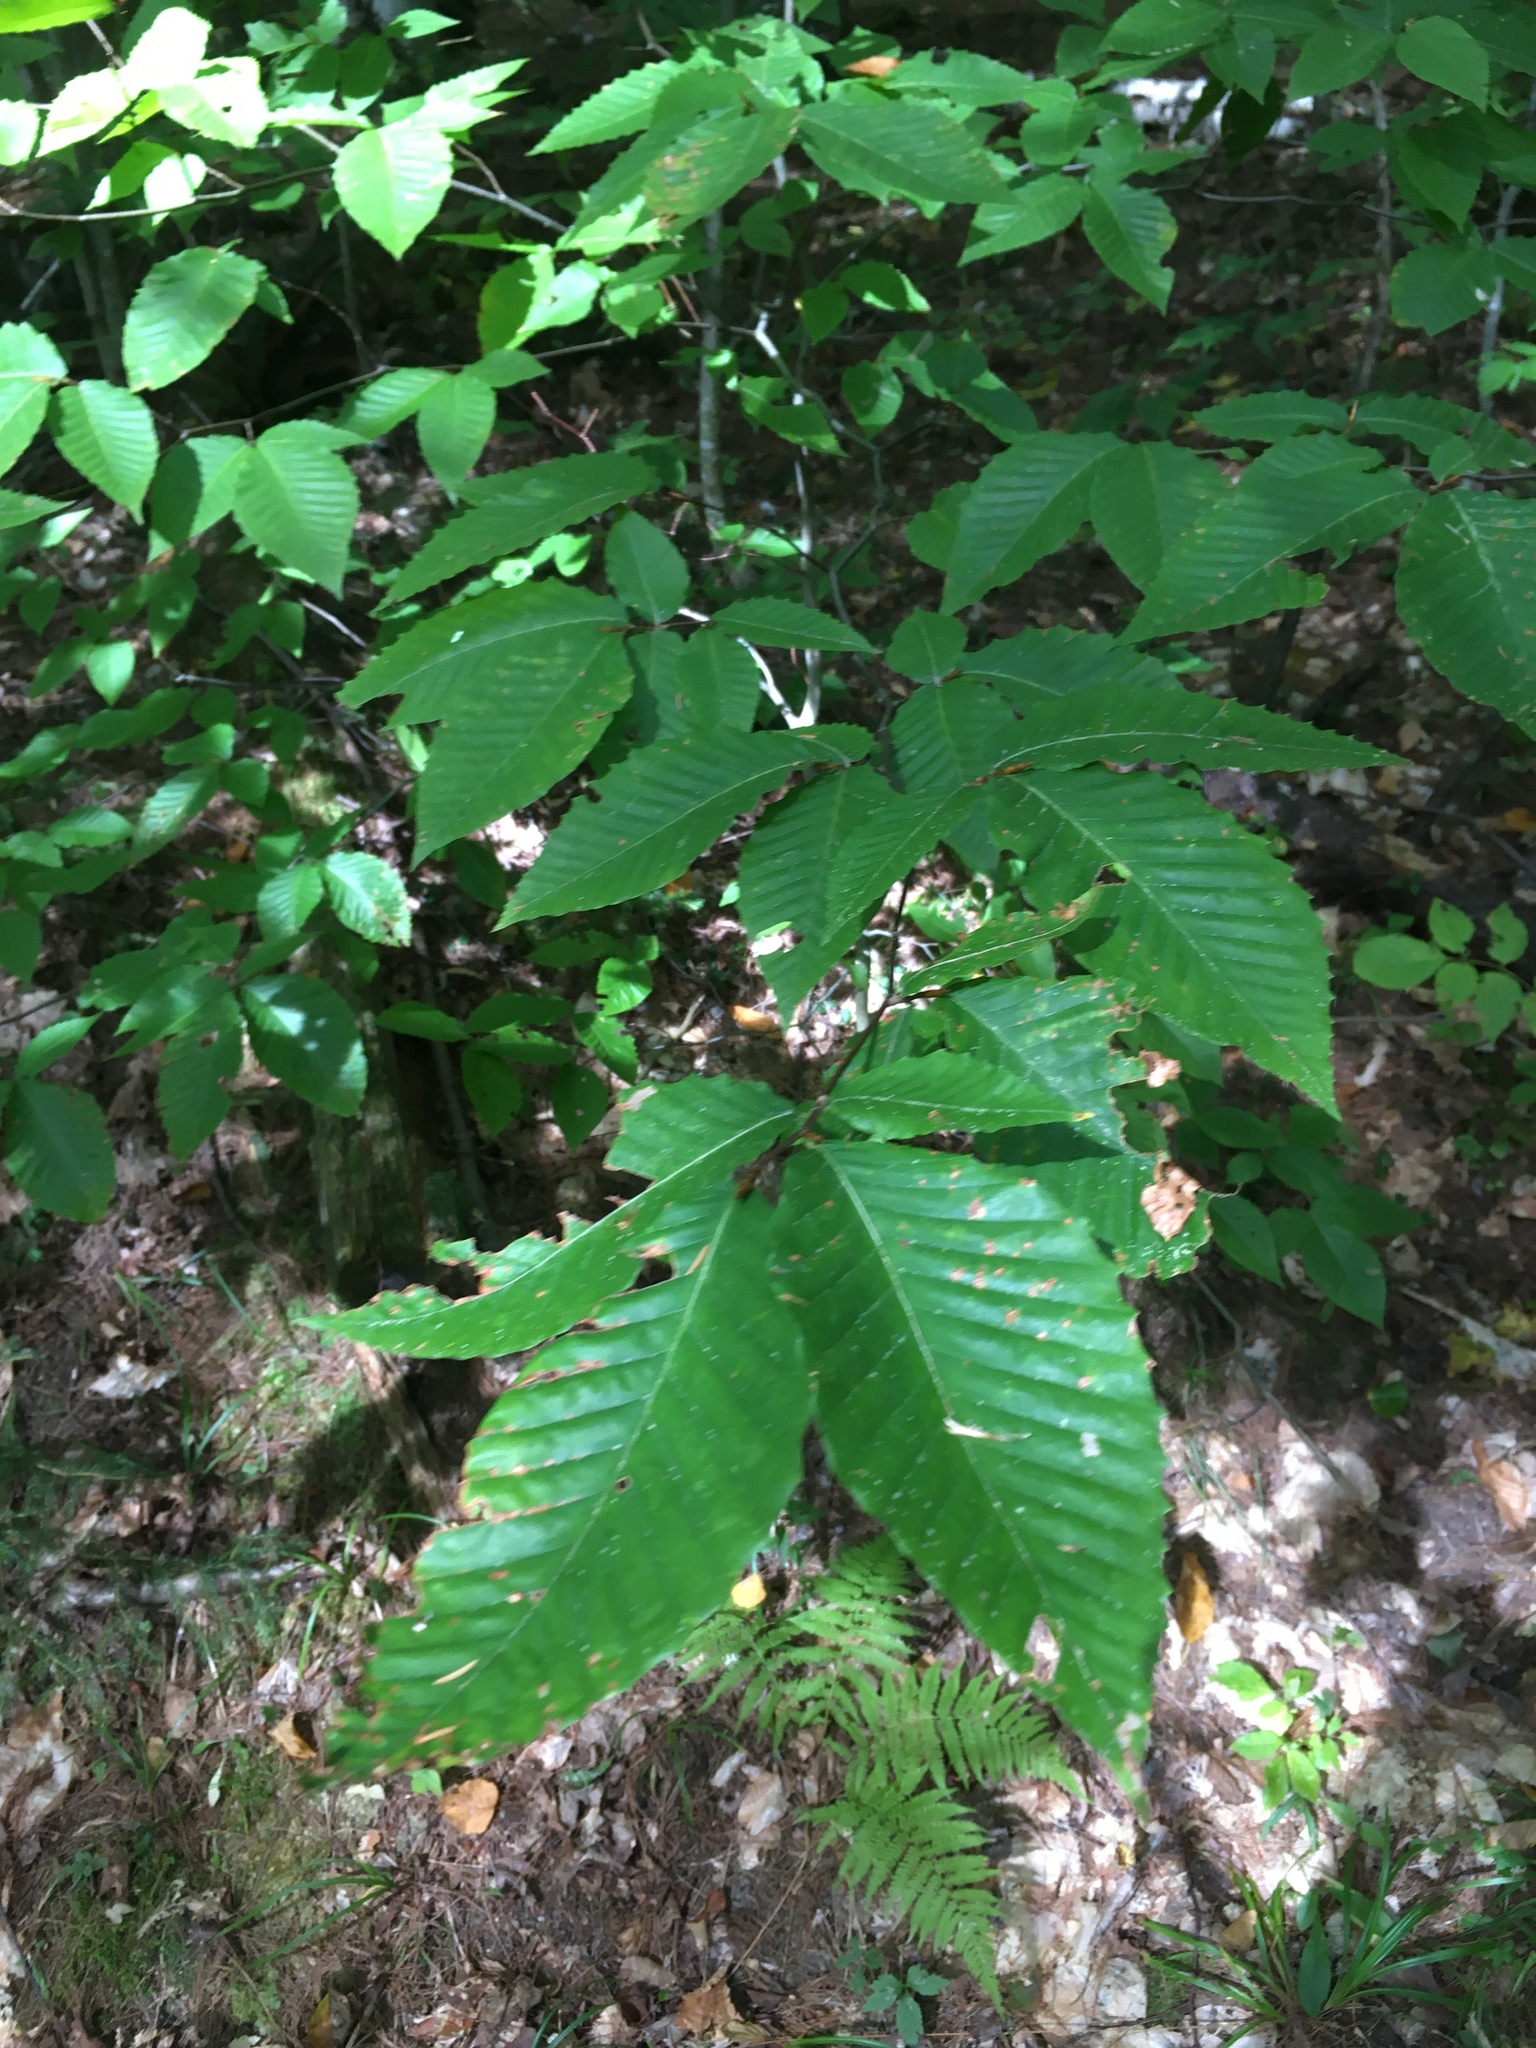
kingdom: Plantae
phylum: Tracheophyta
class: Magnoliopsida
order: Fagales
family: Fagaceae
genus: Fagus
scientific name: Fagus grandifolia
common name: American beech
